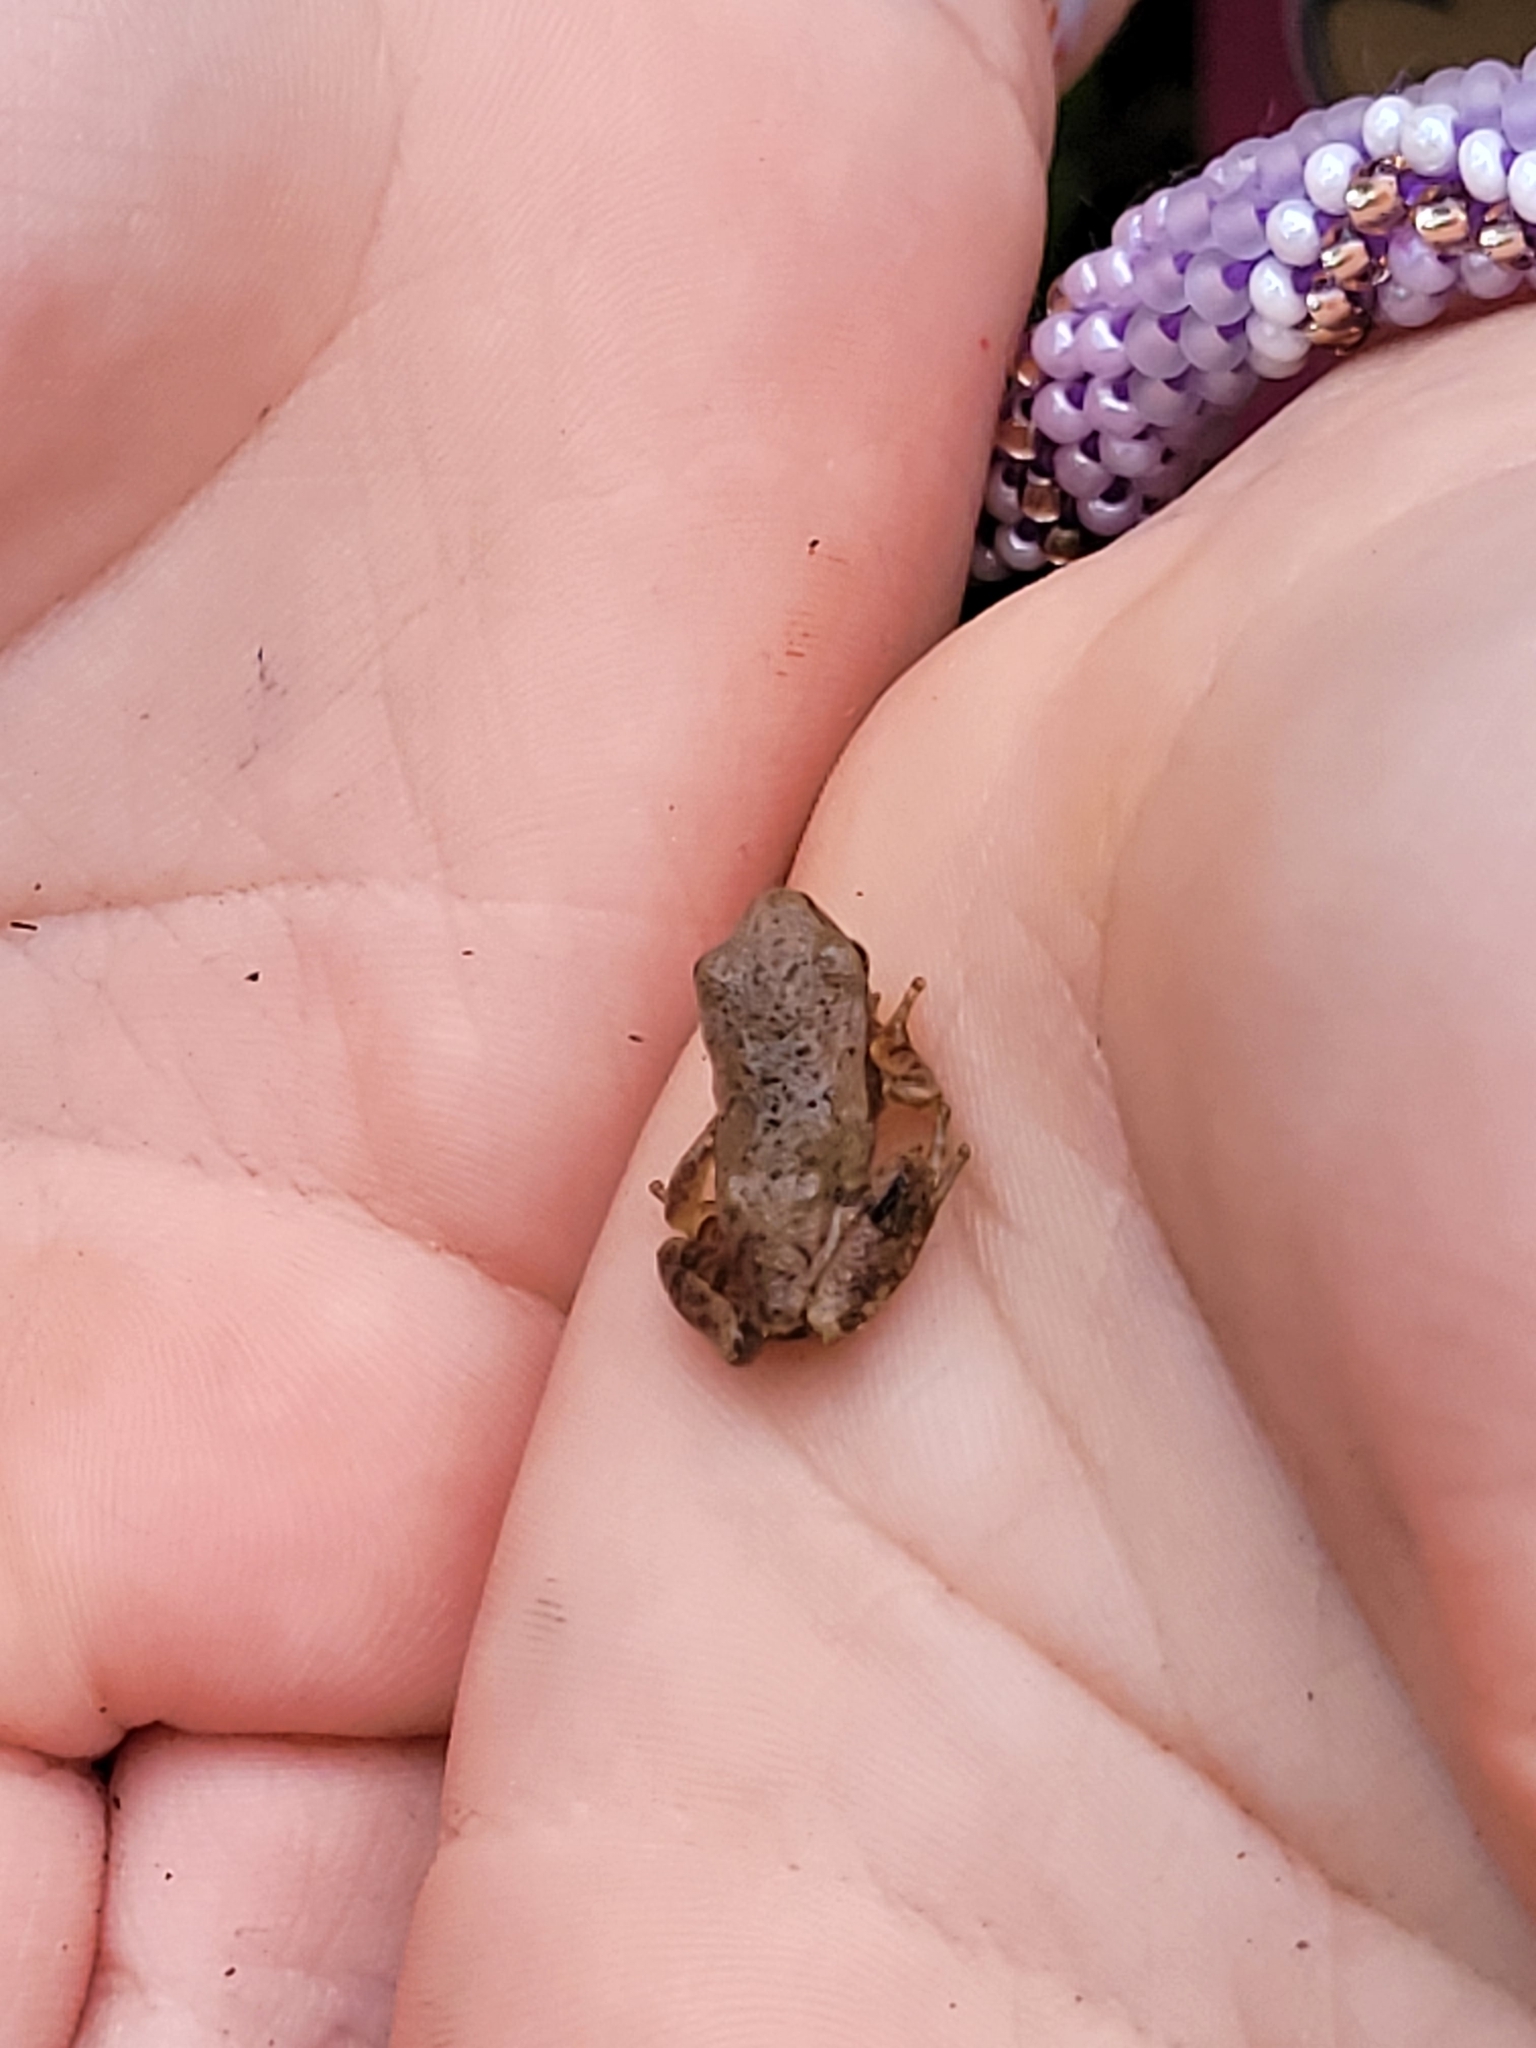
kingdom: Animalia
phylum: Chordata
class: Amphibia
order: Anura
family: Hylidae
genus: Pseudacris
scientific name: Pseudacris crucifer
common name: Spring peeper
